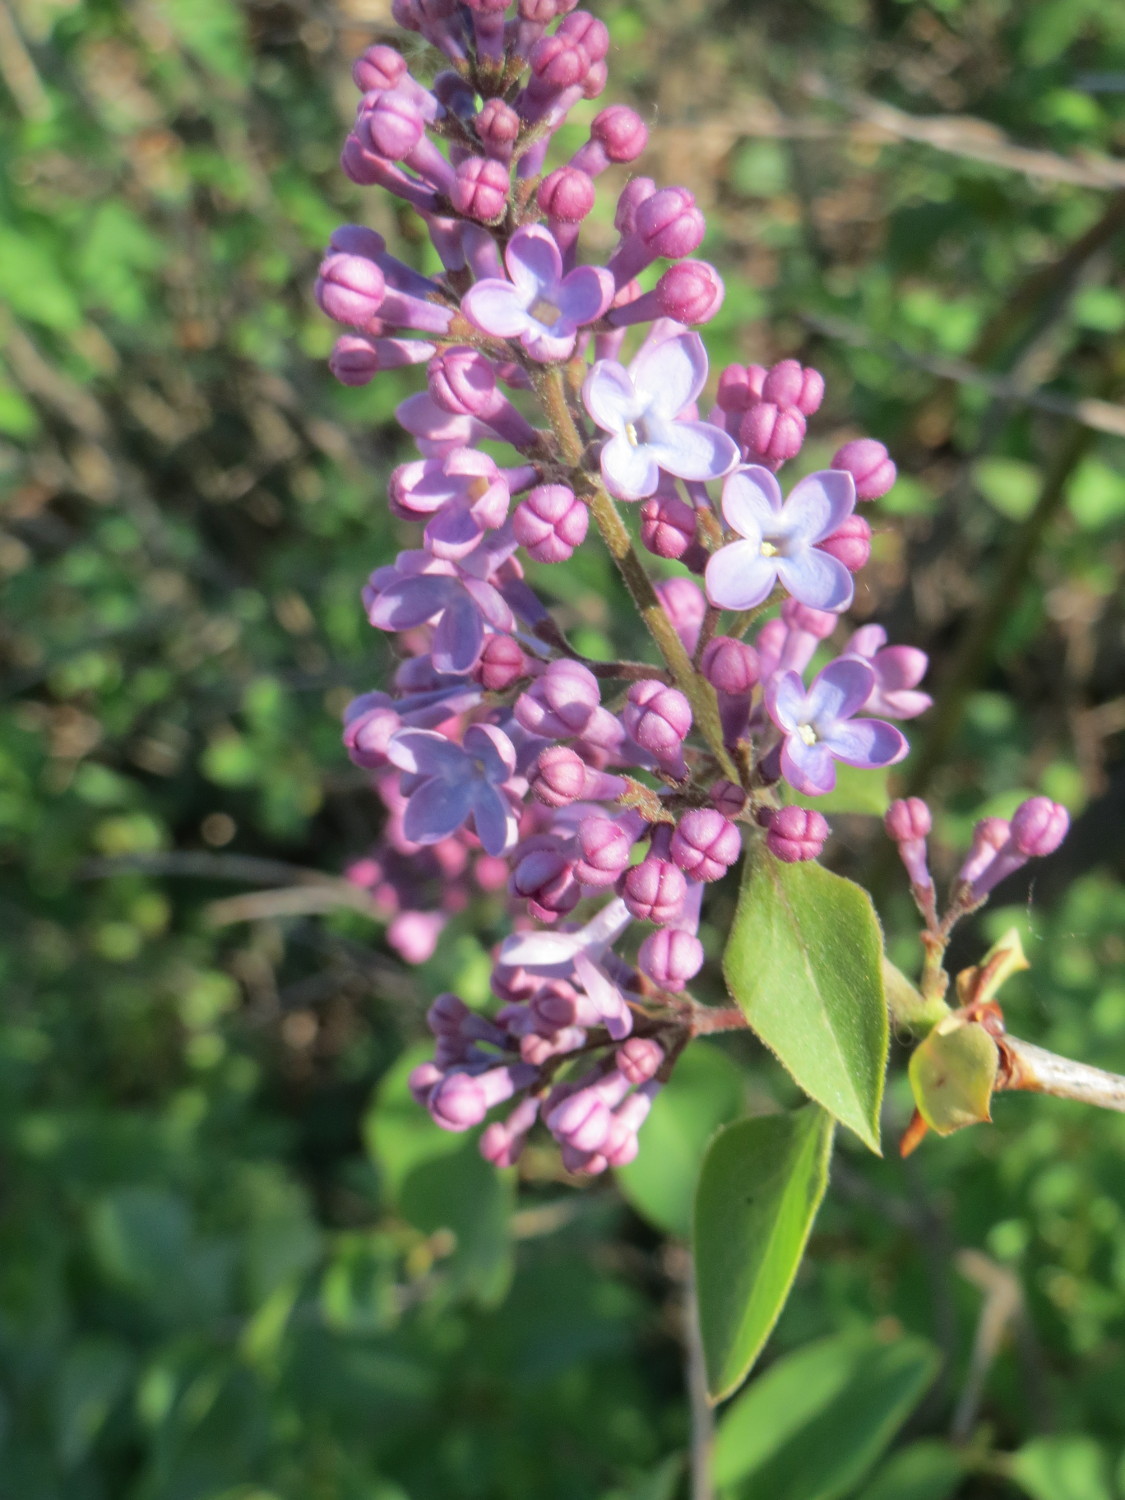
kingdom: Plantae
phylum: Tracheophyta
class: Magnoliopsida
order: Lamiales
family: Oleaceae
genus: Syringa
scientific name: Syringa vulgaris
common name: Common lilac
